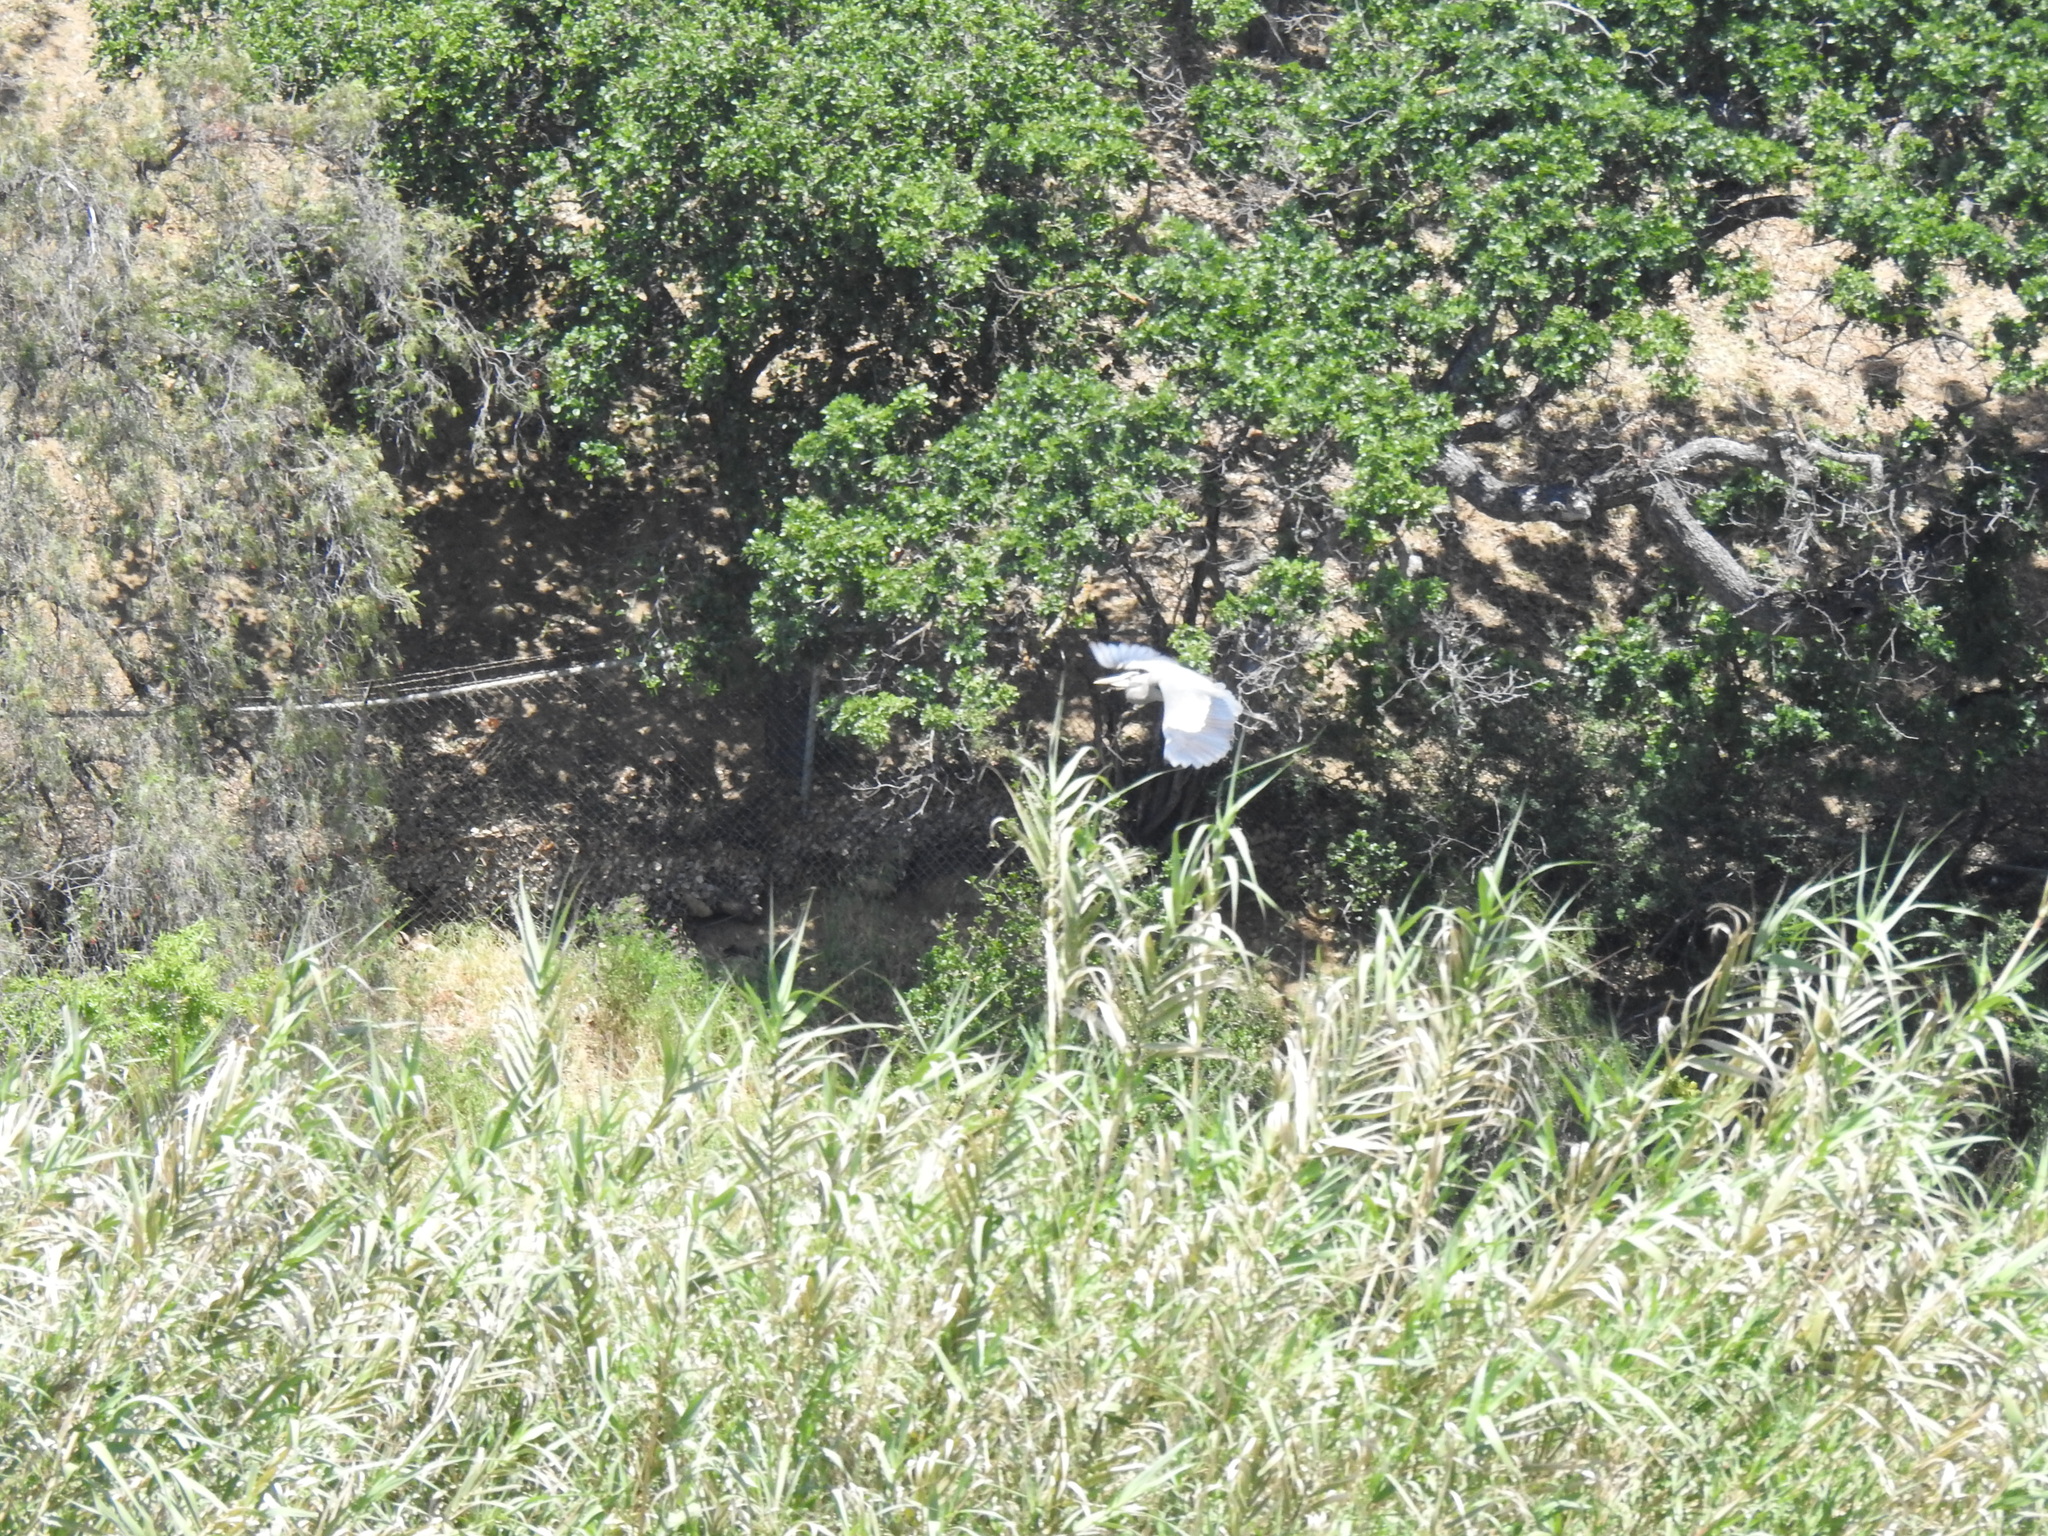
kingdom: Animalia
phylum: Chordata
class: Aves
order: Pelecaniformes
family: Ardeidae
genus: Ardea
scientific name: Ardea herodias
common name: Great blue heron
